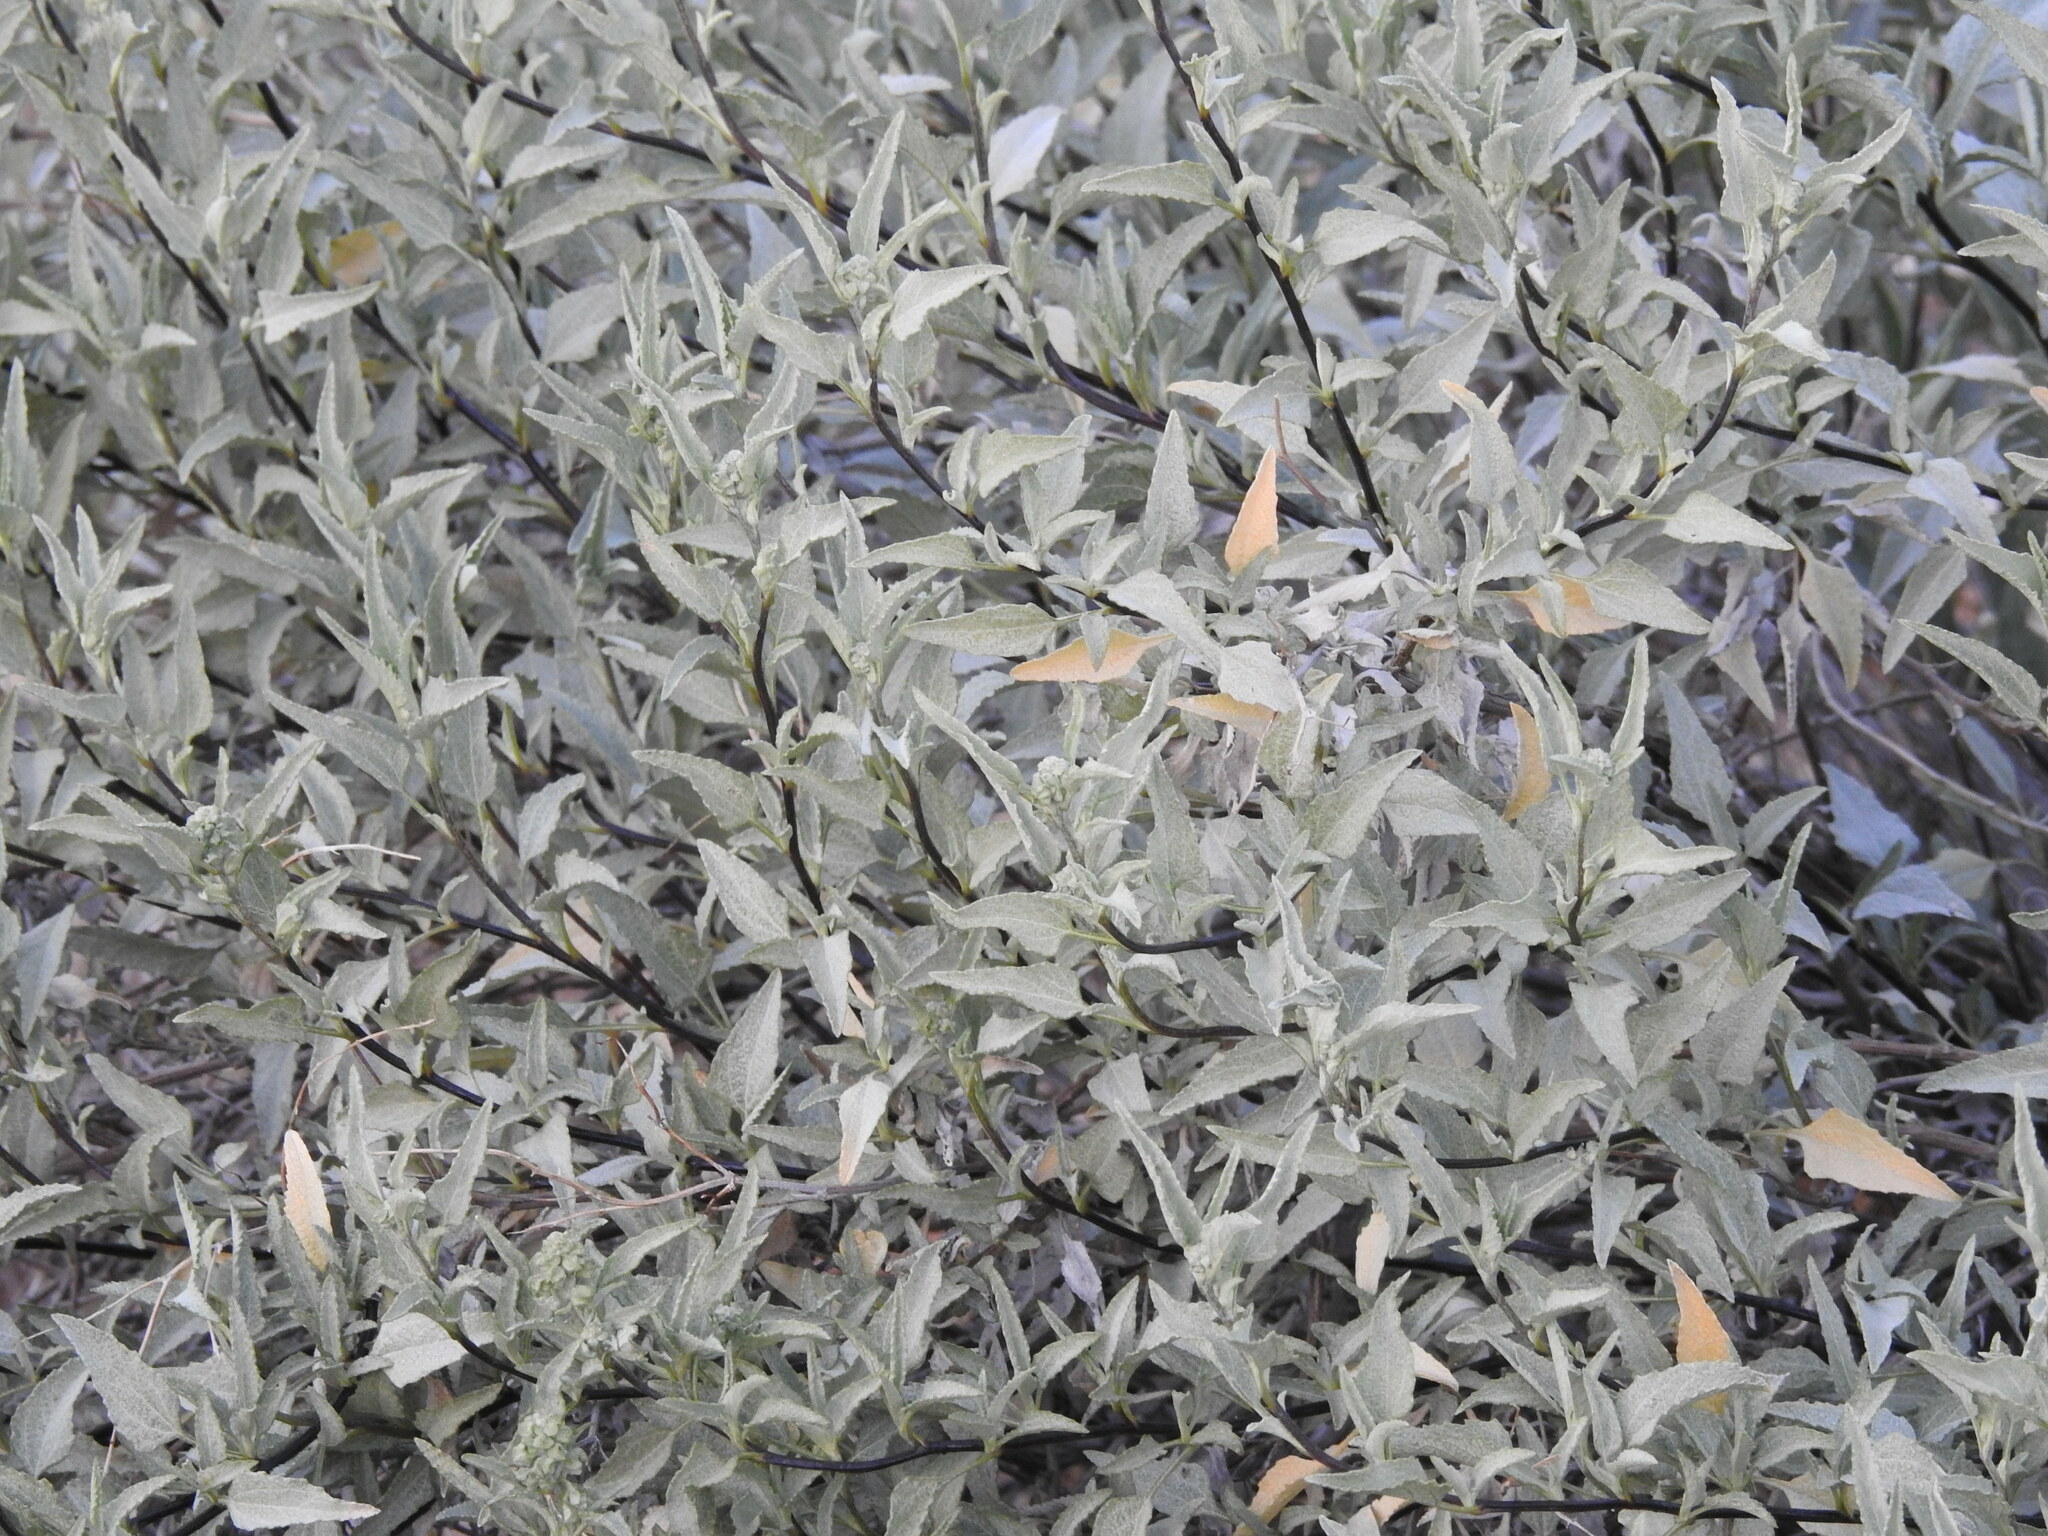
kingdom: Plantae
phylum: Tracheophyta
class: Magnoliopsida
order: Asterales
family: Asteraceae
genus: Ambrosia
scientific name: Ambrosia deltoidea
